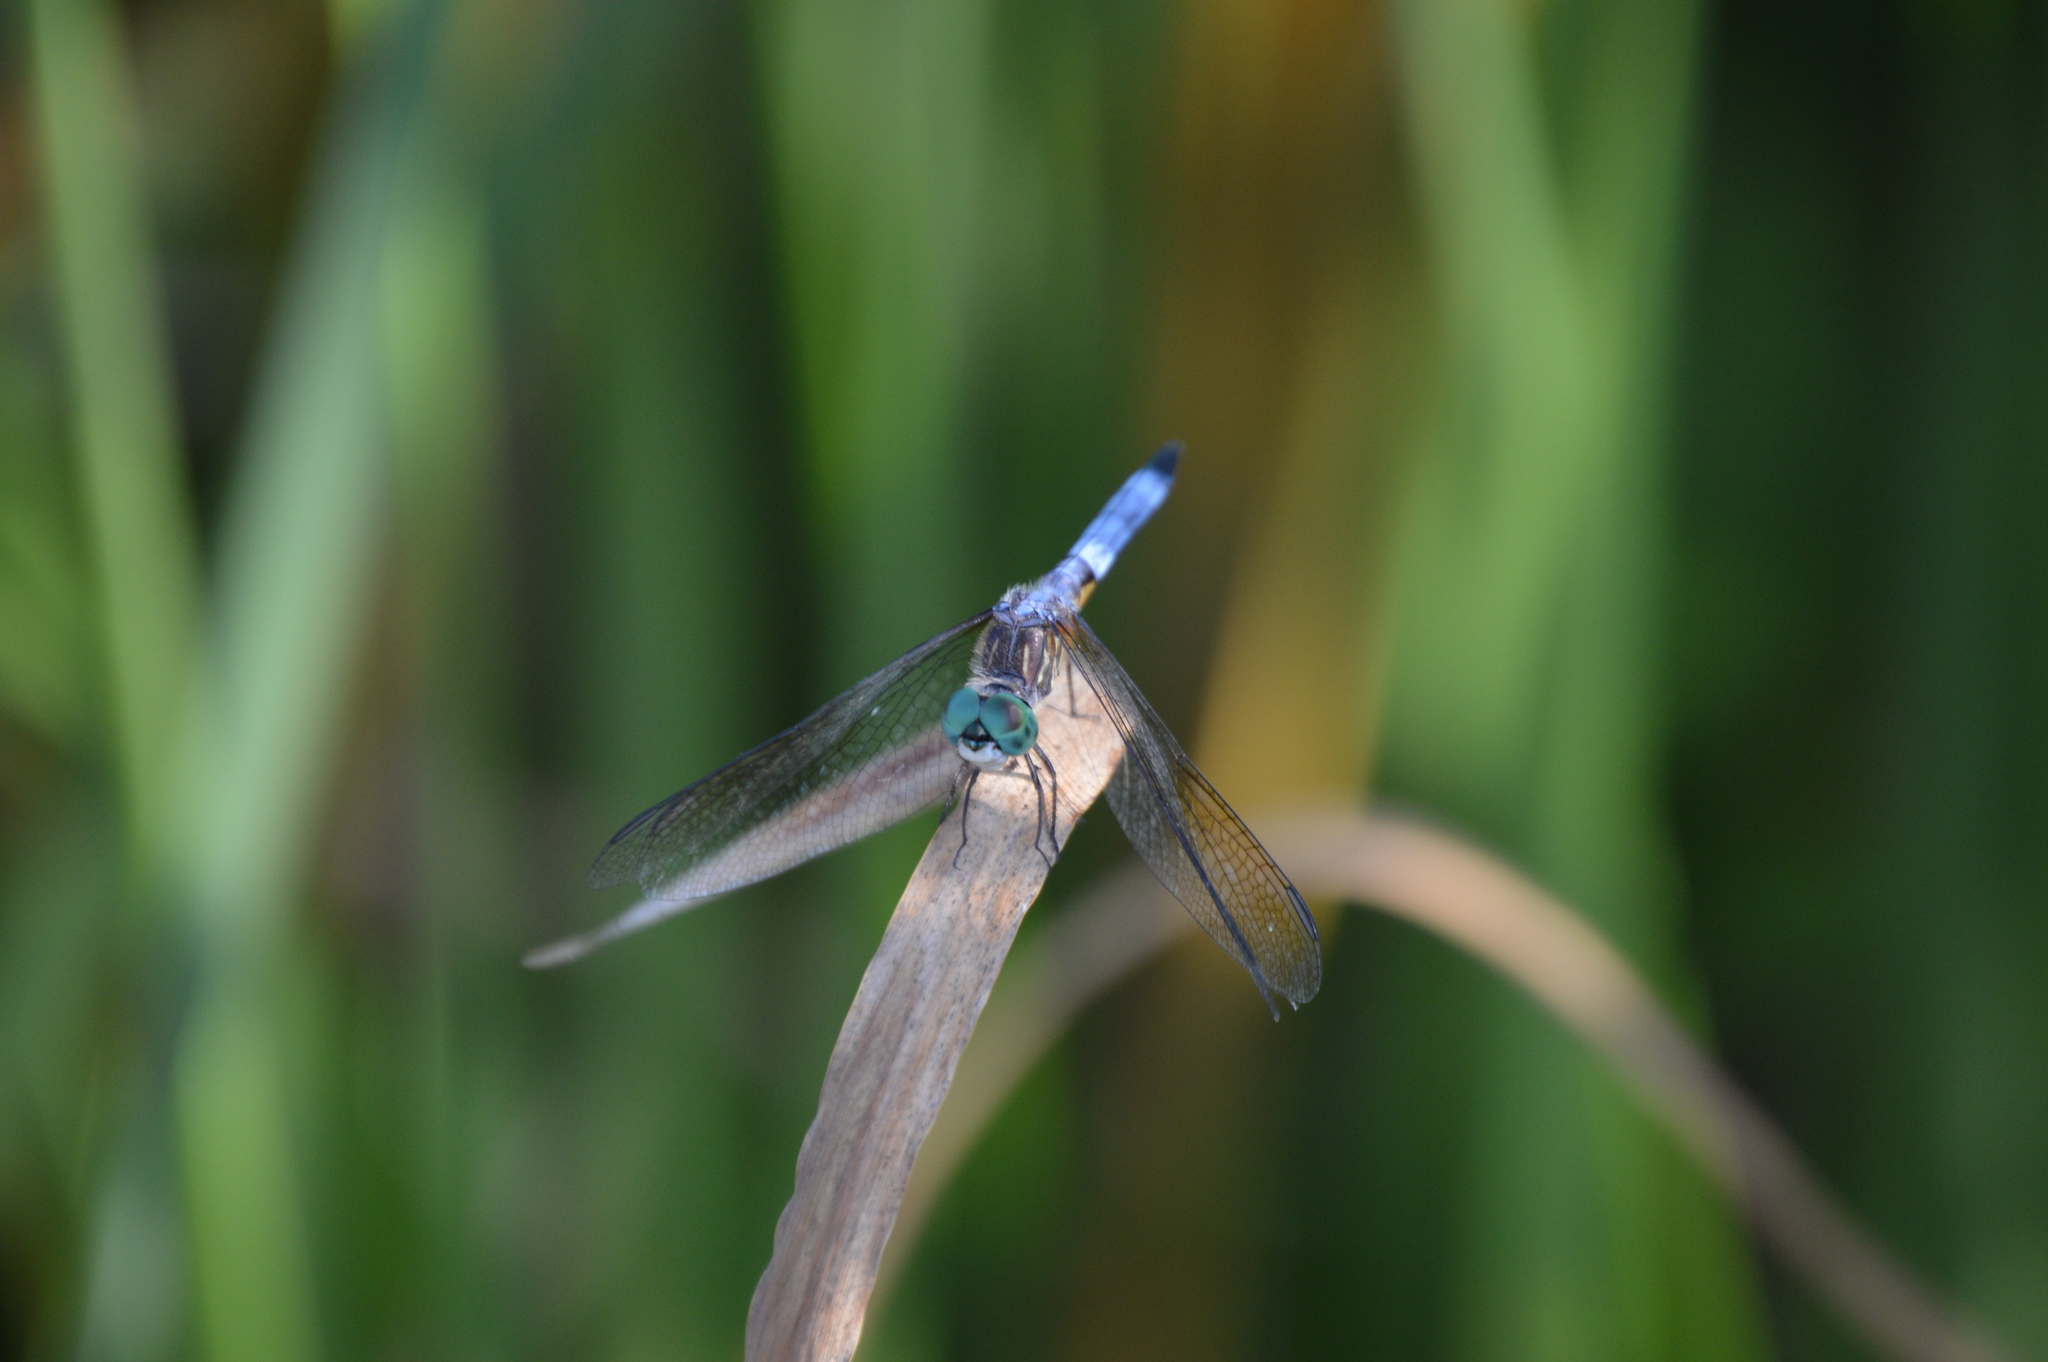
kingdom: Animalia
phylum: Arthropoda
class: Insecta
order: Odonata
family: Libellulidae
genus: Pachydiplax
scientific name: Pachydiplax longipennis
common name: Blue dasher
